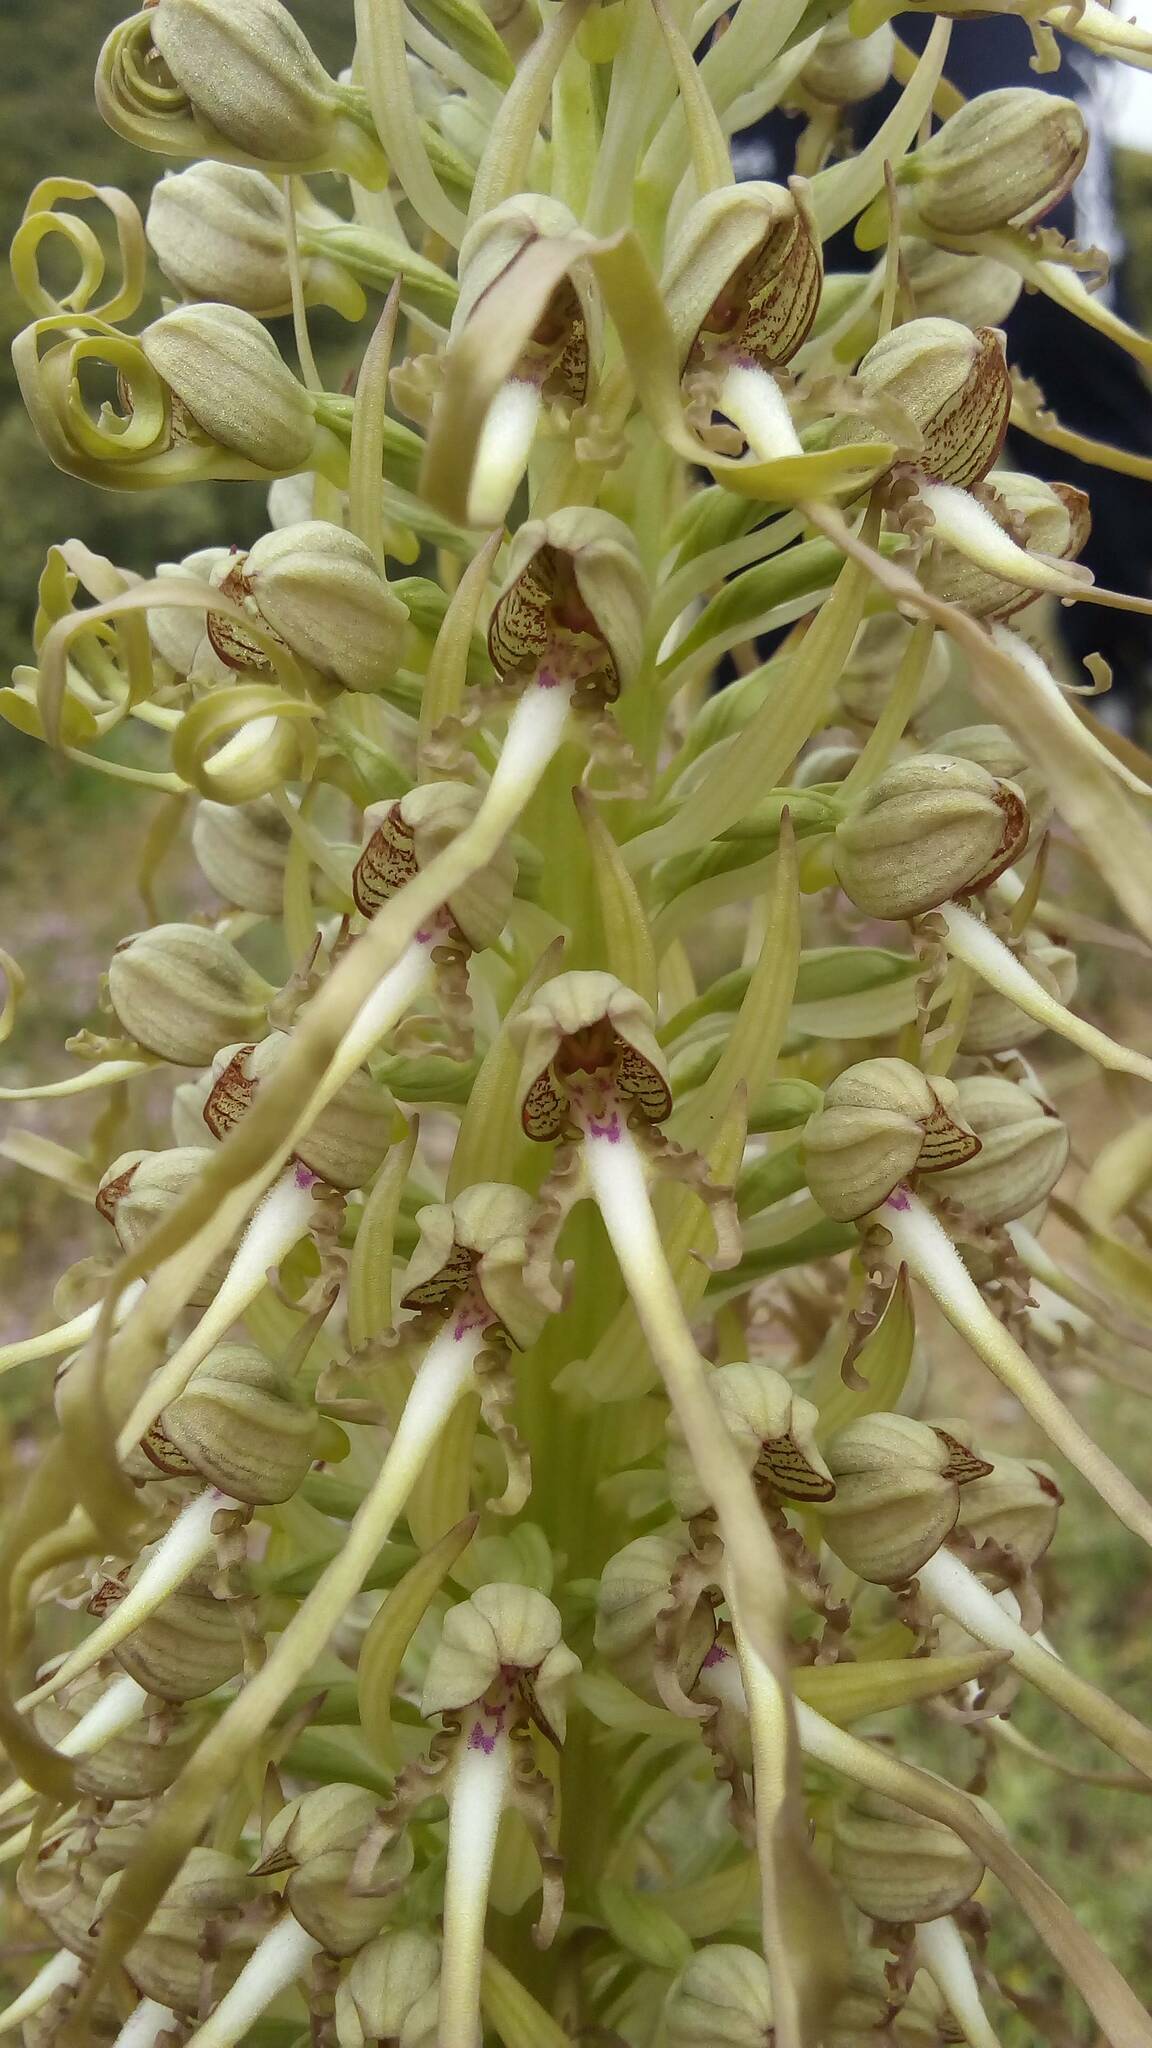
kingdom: Plantae
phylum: Tracheophyta
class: Liliopsida
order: Asparagales
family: Orchidaceae
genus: Himantoglossum
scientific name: Himantoglossum hircinum
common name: Lizard orchid
